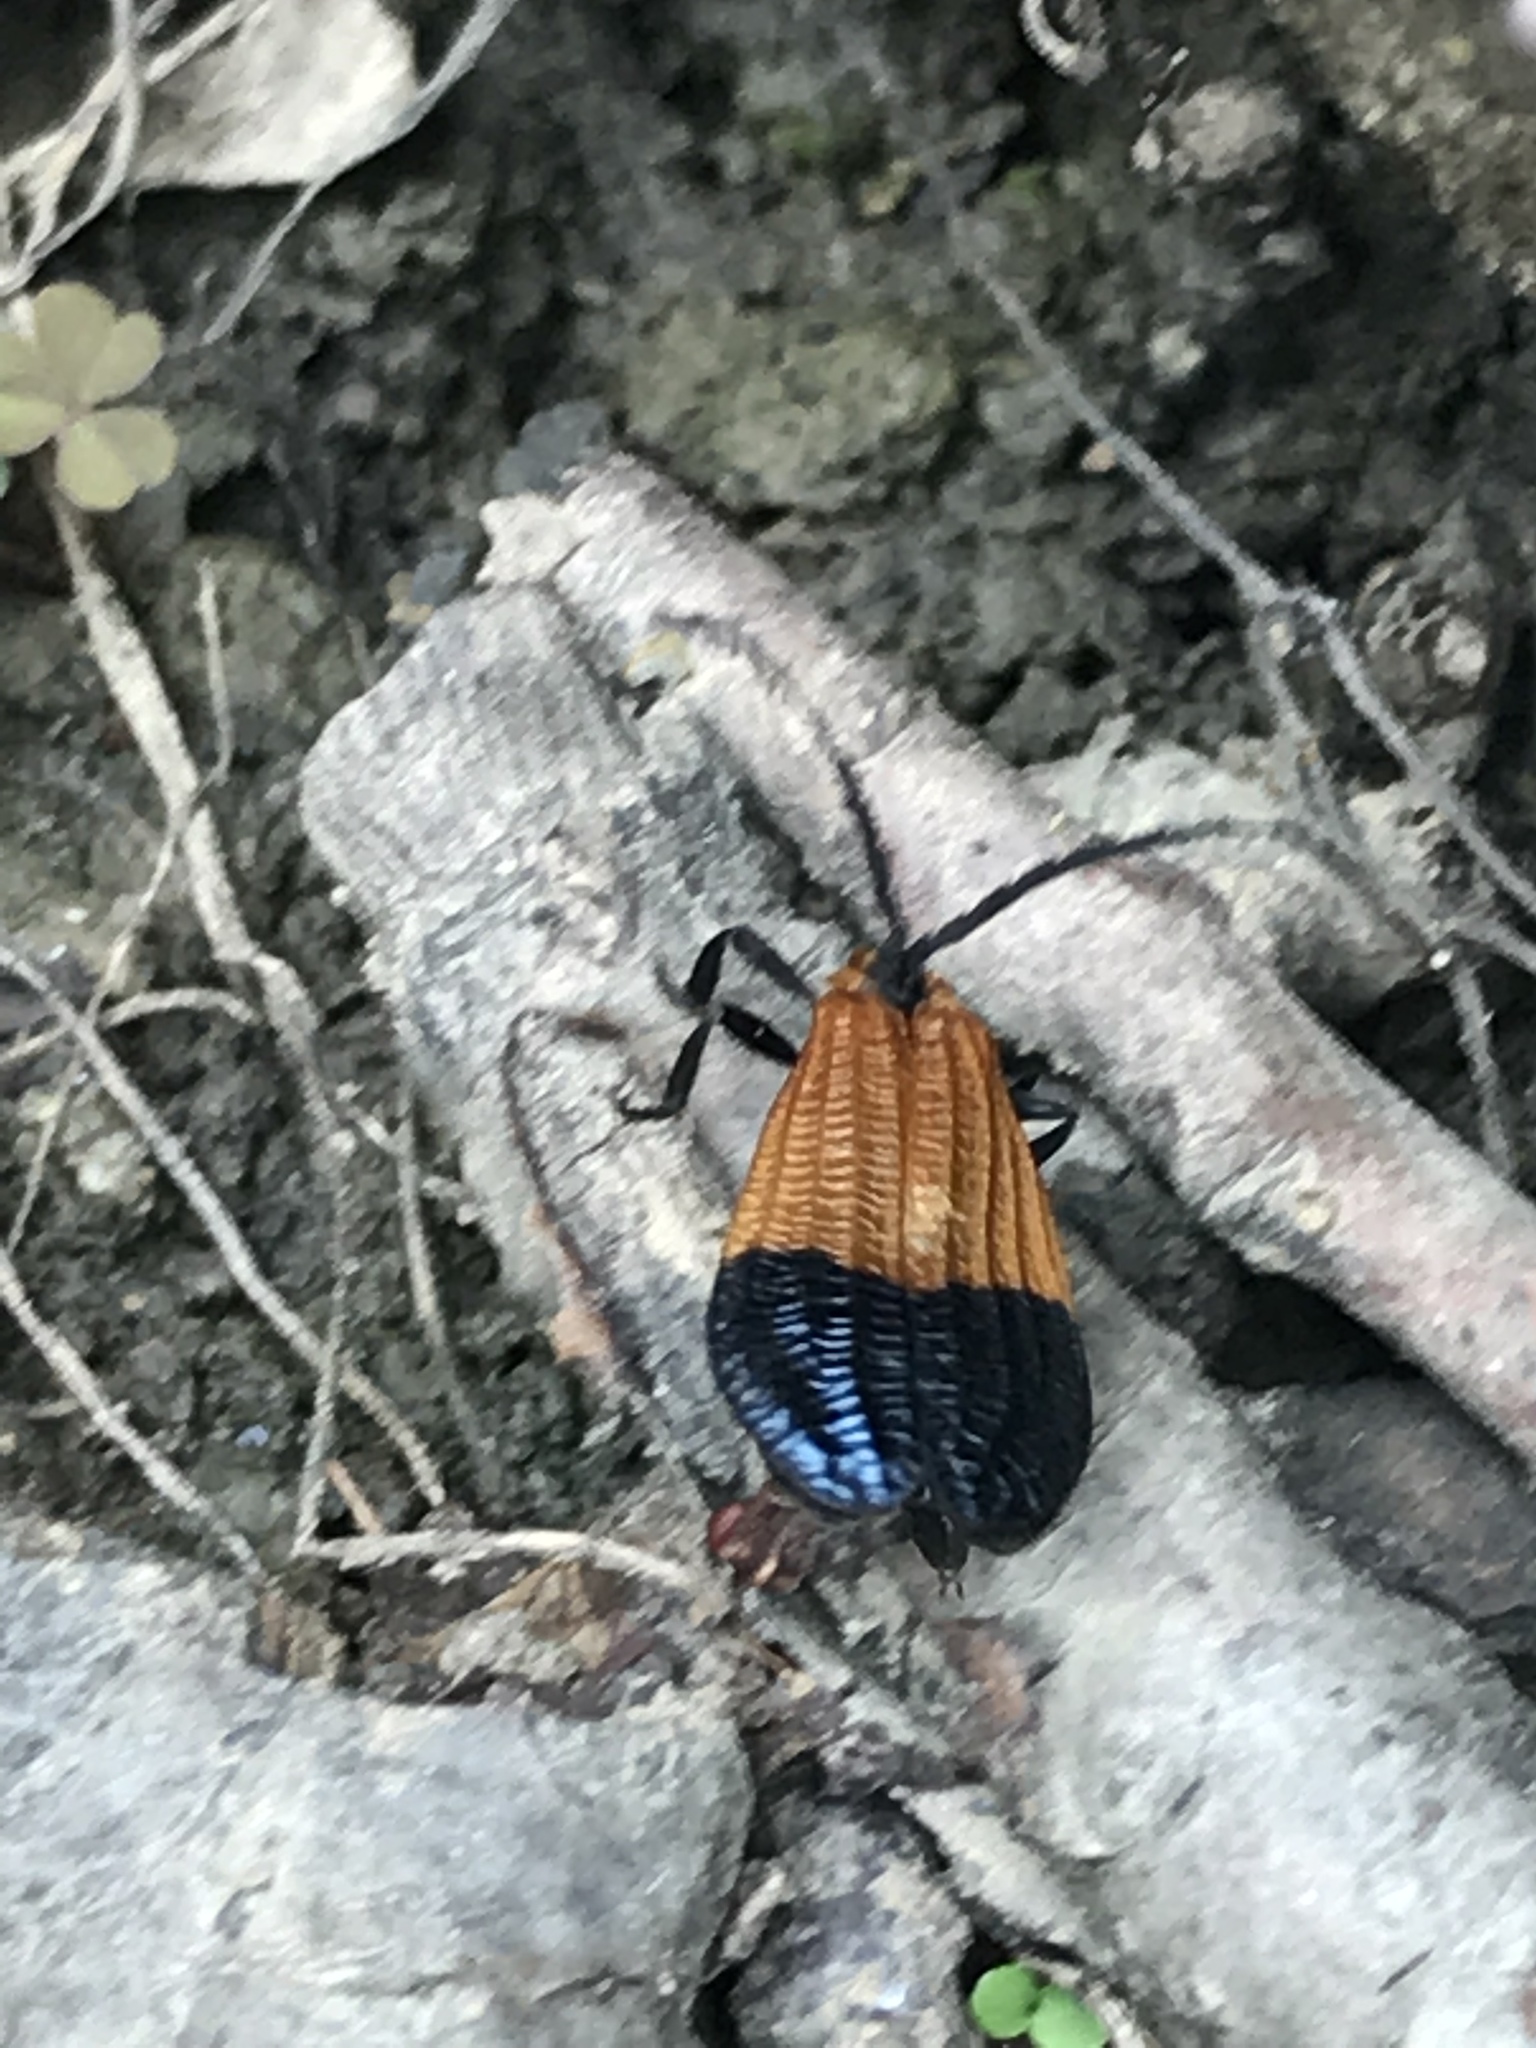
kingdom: Animalia
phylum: Arthropoda
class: Insecta
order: Coleoptera
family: Lycidae
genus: Calopteron
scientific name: Calopteron terminale
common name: End band net-winged beetle
